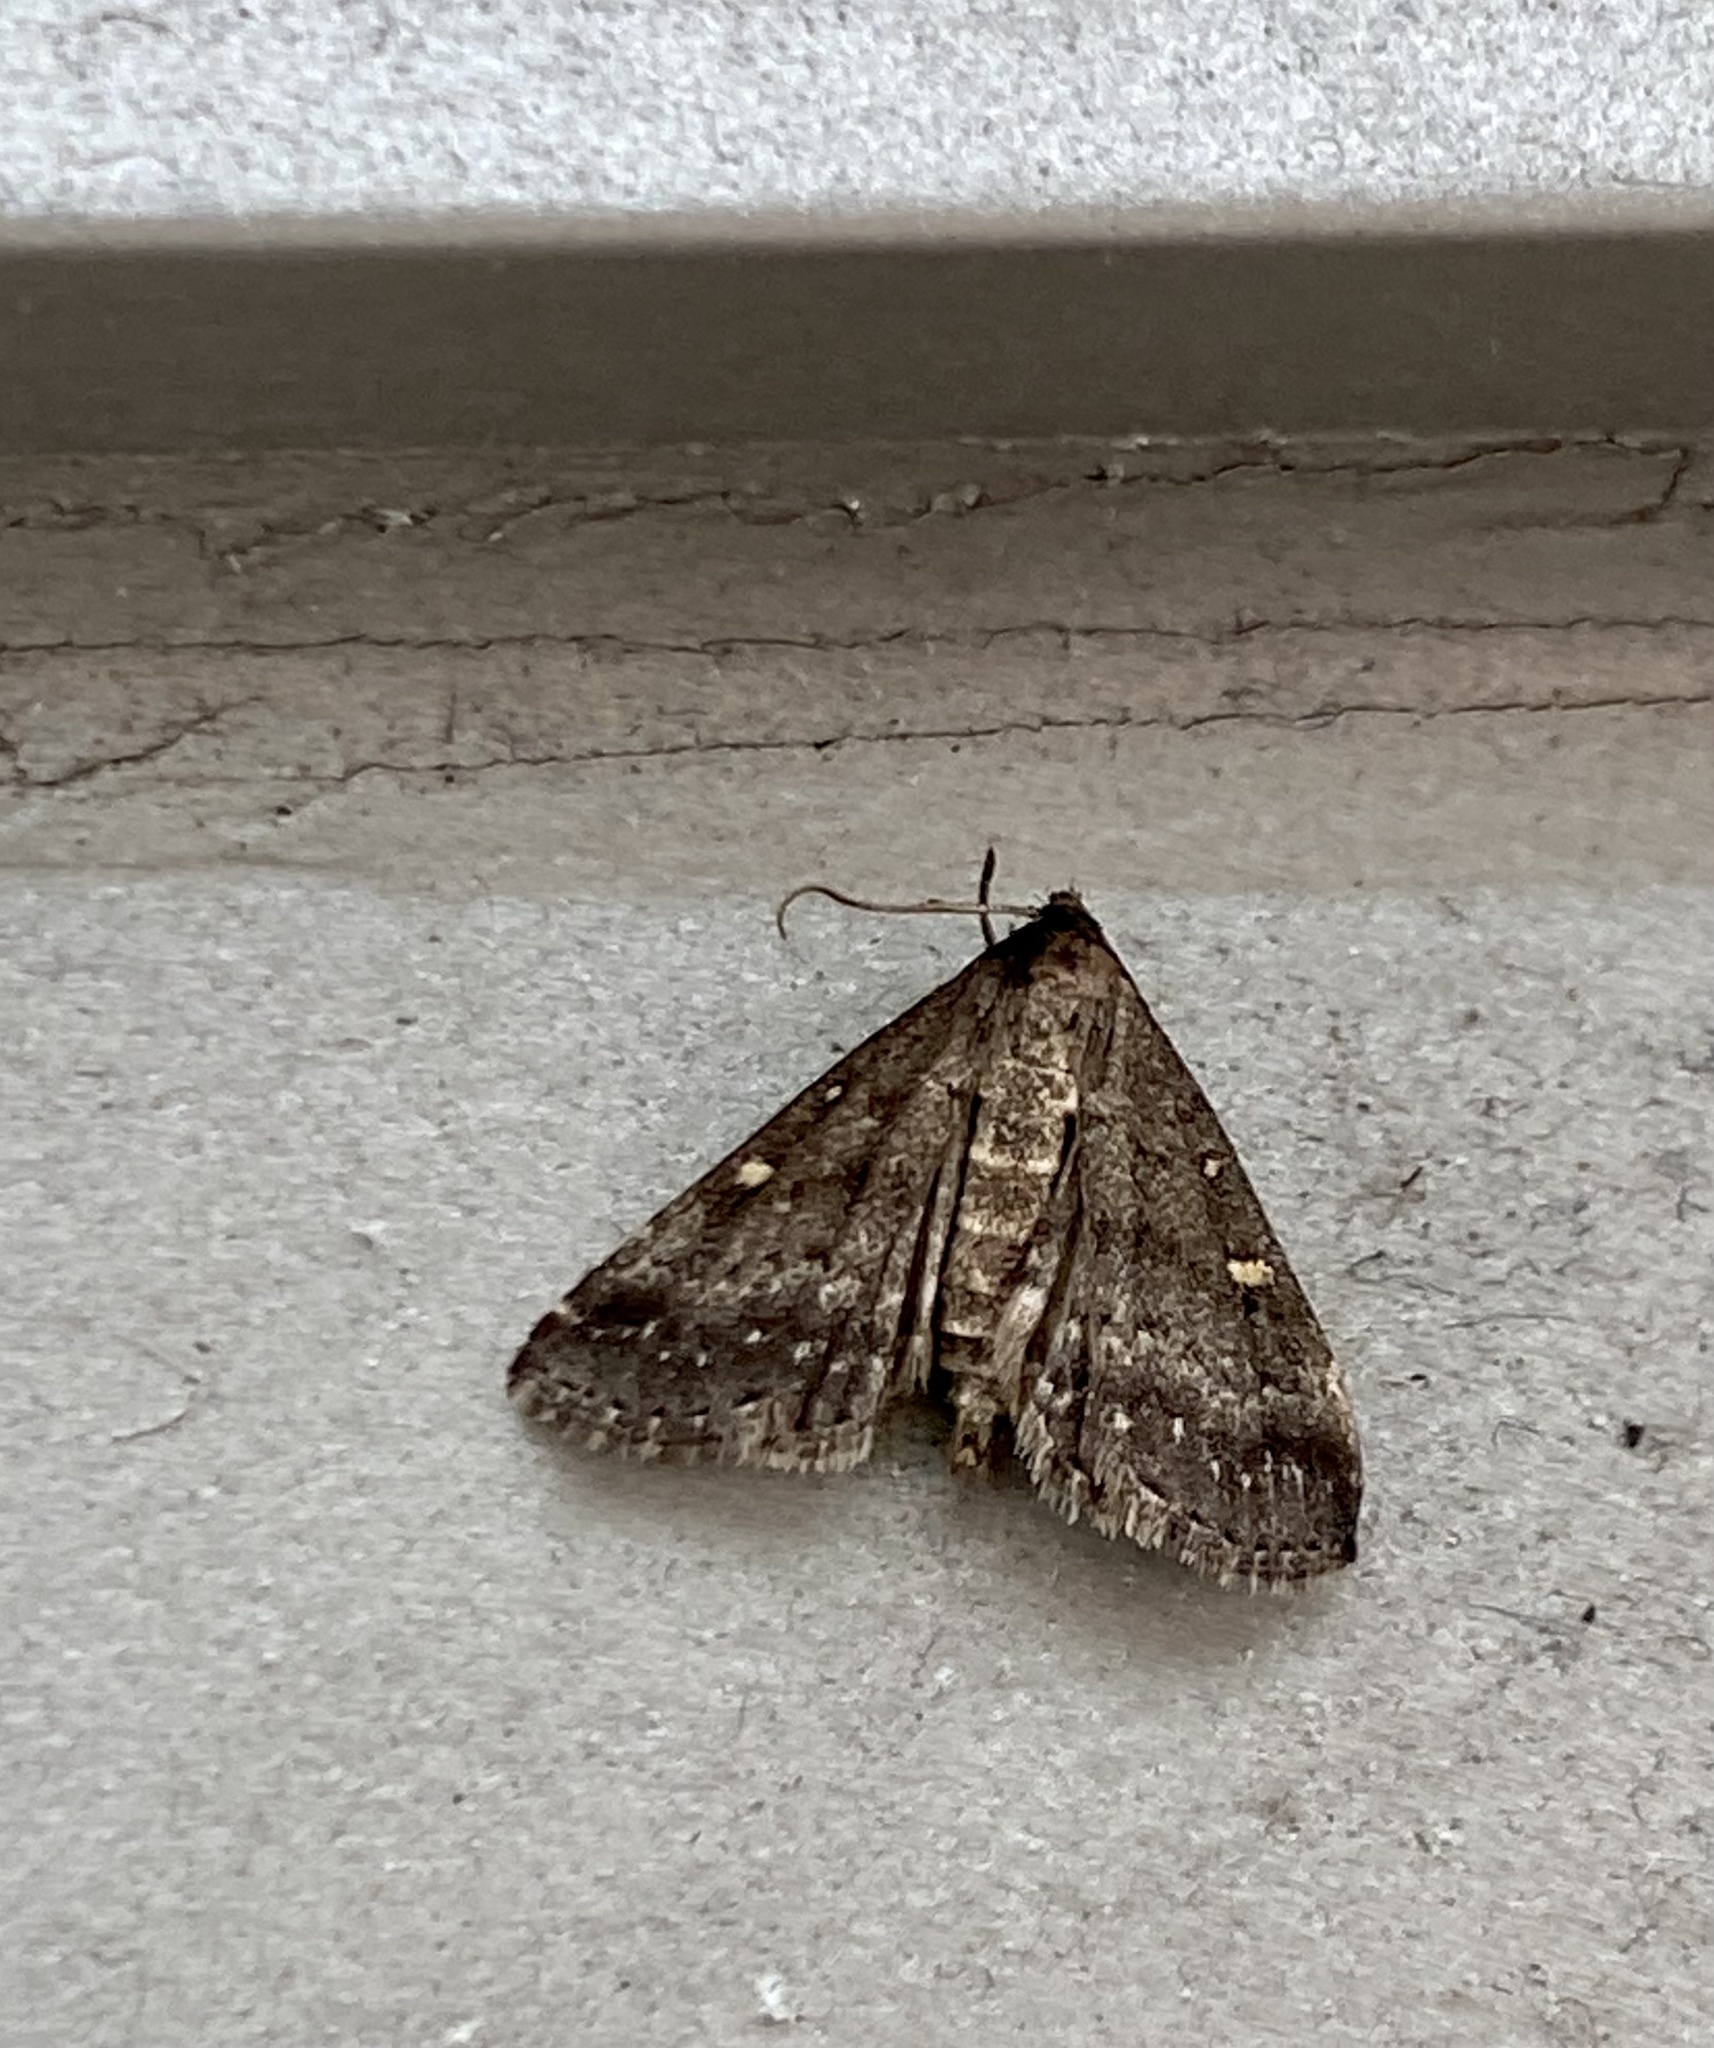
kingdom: Animalia
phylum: Arthropoda
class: Insecta
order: Lepidoptera
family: Erebidae
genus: Tetanolita
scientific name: Tetanolita mynesalis
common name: Smoky tetanolita moth
